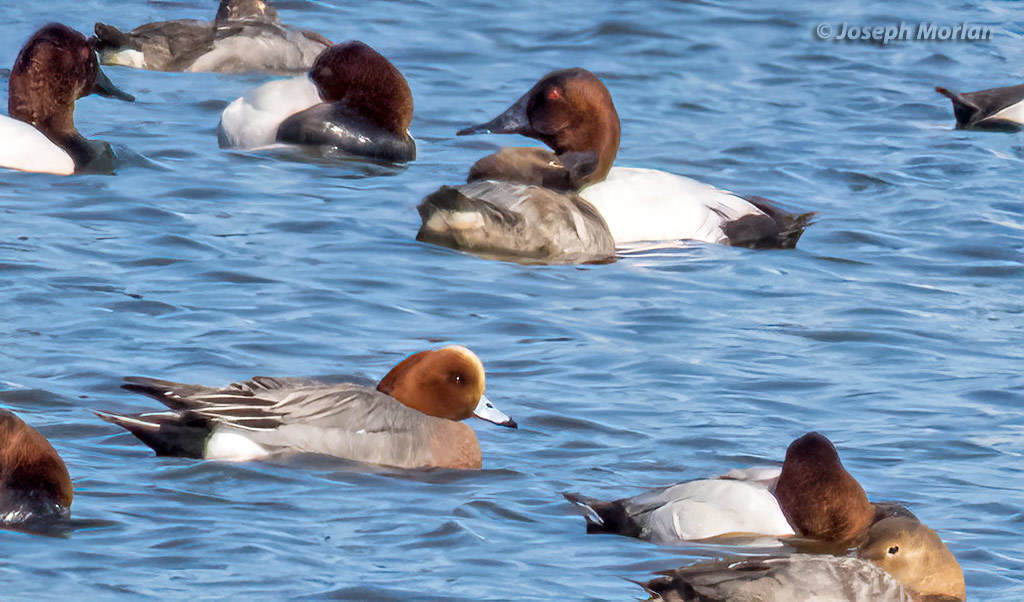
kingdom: Animalia
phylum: Chordata
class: Aves
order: Anseriformes
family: Anatidae
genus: Mareca
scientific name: Mareca penelope
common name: Eurasian wigeon
